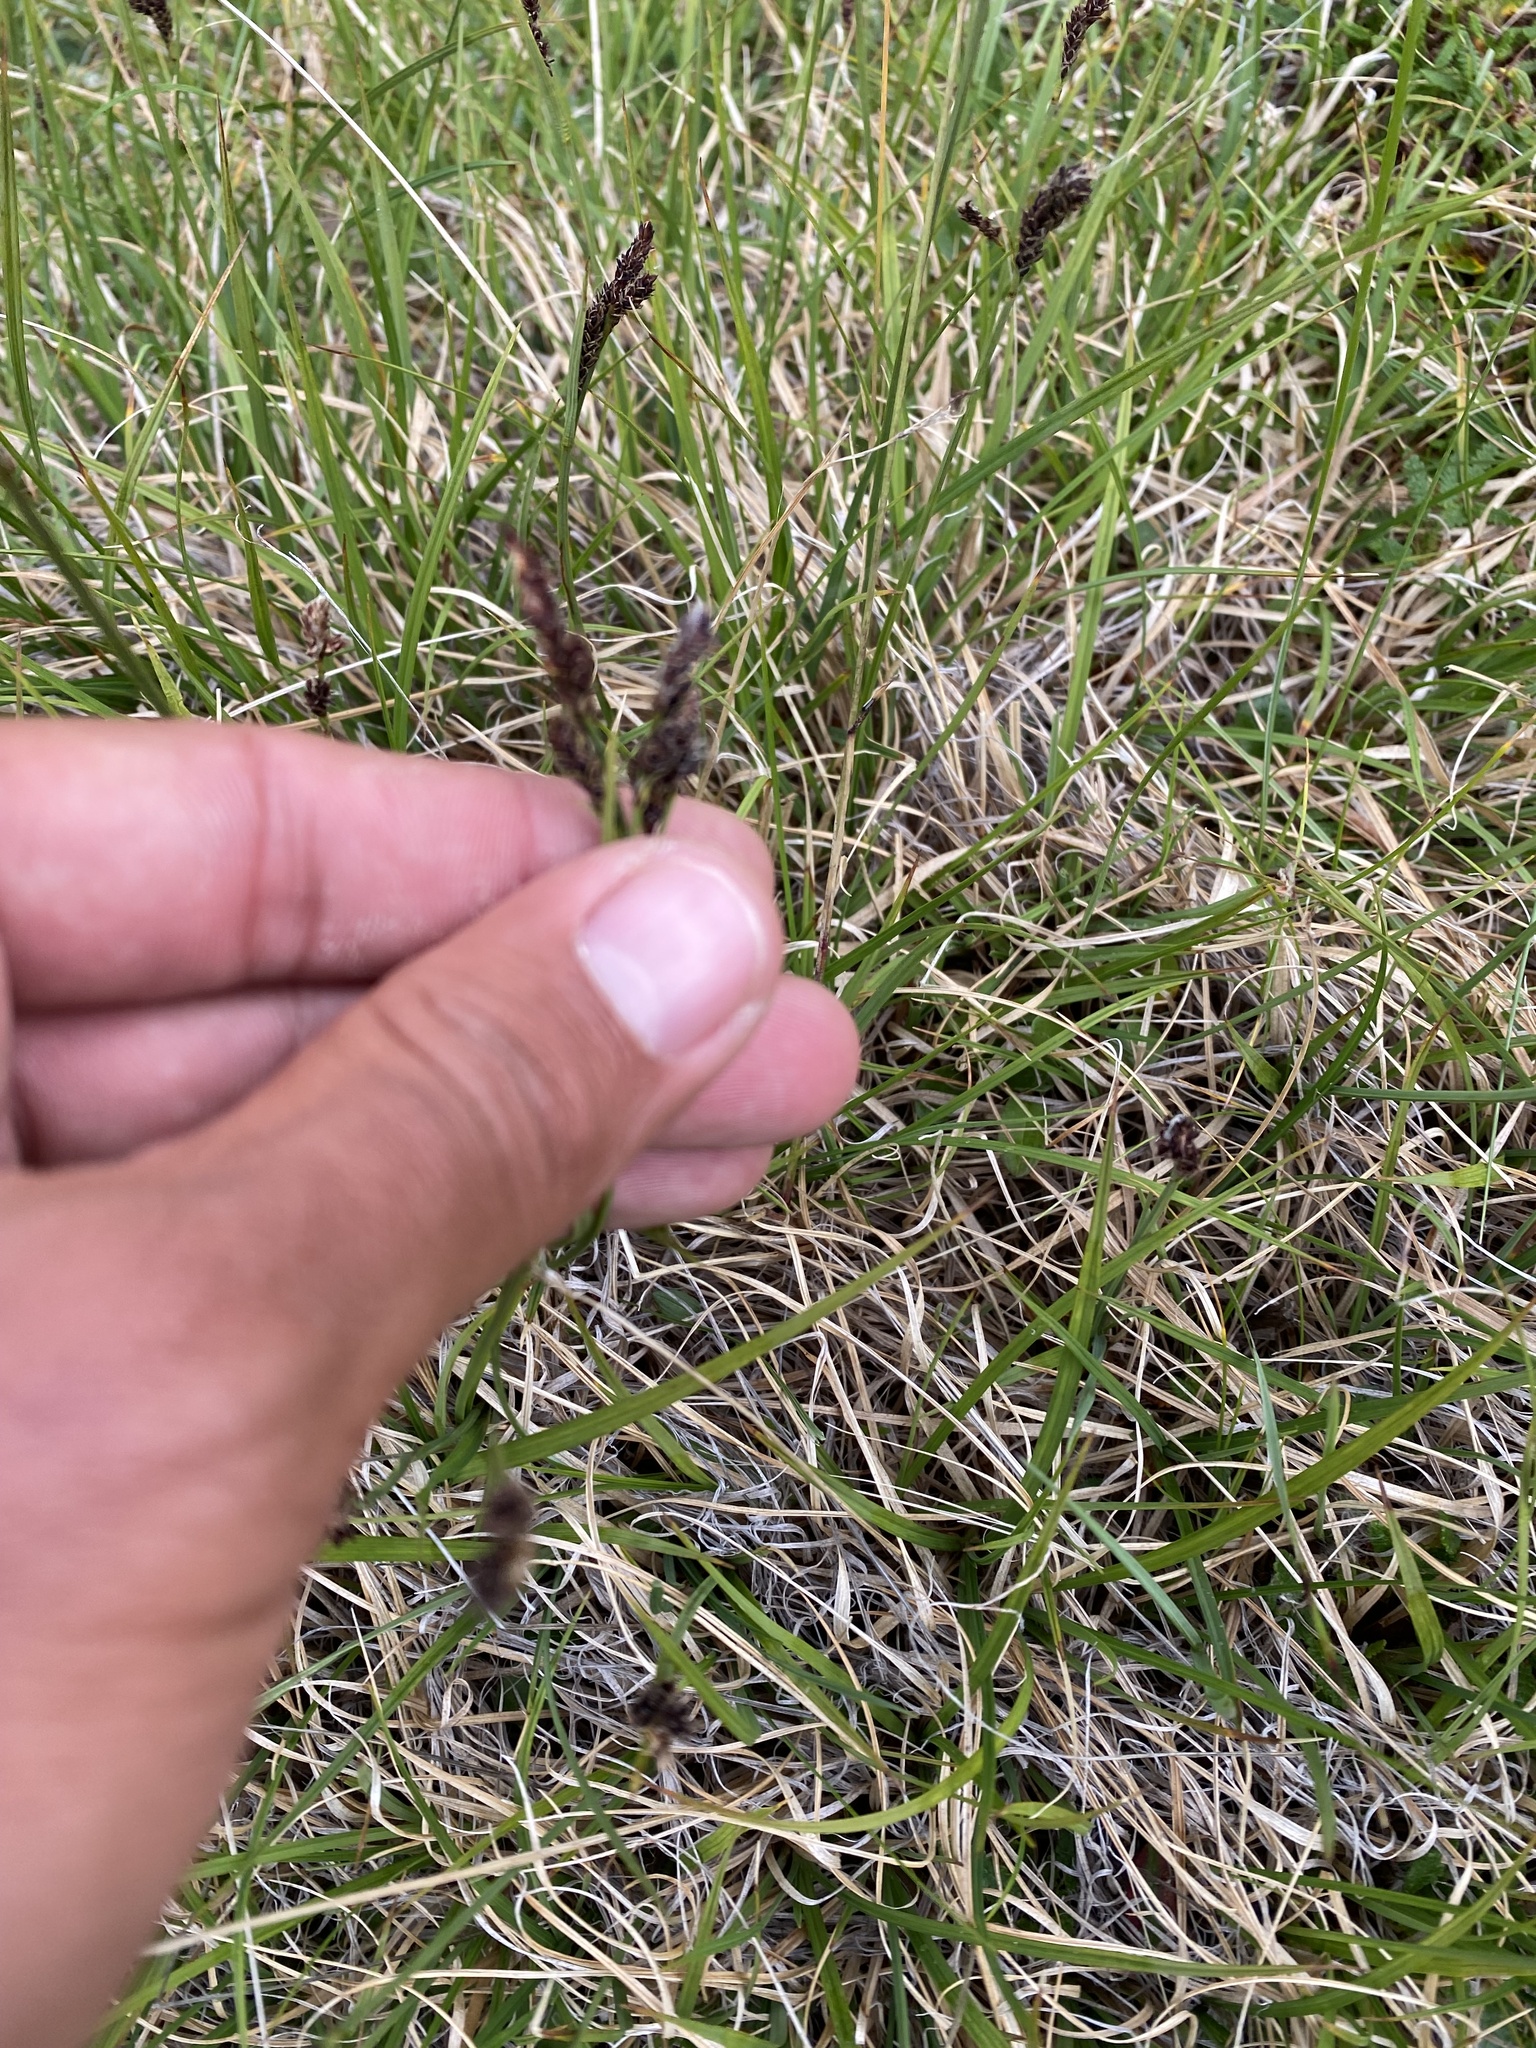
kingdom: Plantae
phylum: Tracheophyta
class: Liliopsida
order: Poales
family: Cyperaceae
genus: Carex
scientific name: Carex bigelowii
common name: Stiff sedge
